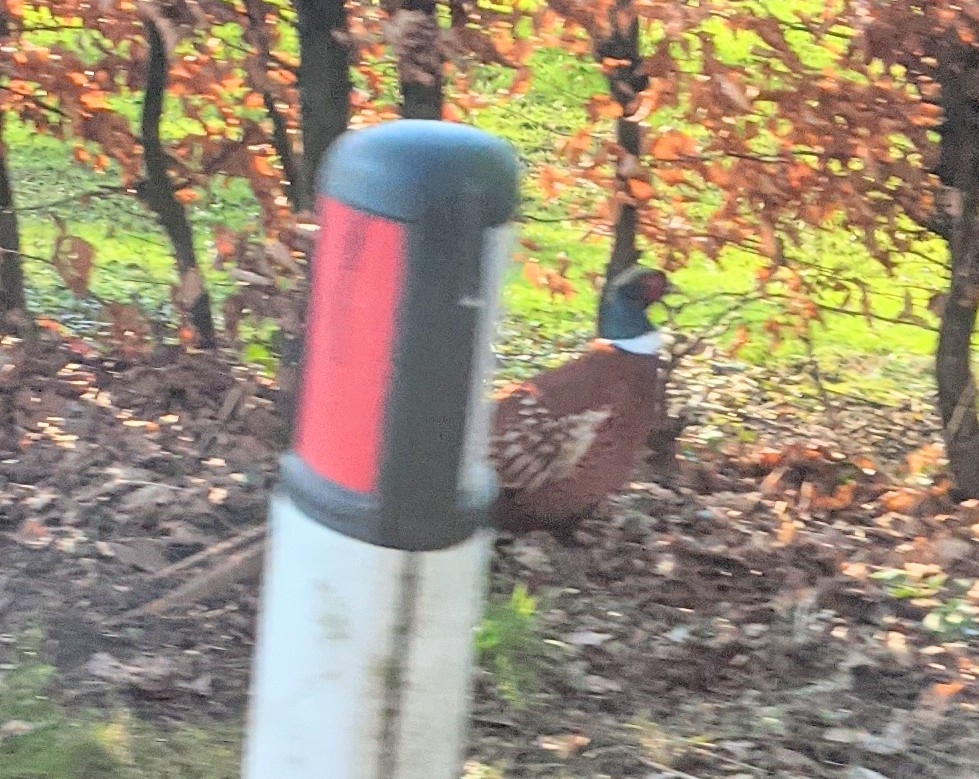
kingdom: Animalia
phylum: Chordata
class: Aves
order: Galliformes
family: Phasianidae
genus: Phasianus
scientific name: Phasianus colchicus
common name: Common pheasant
